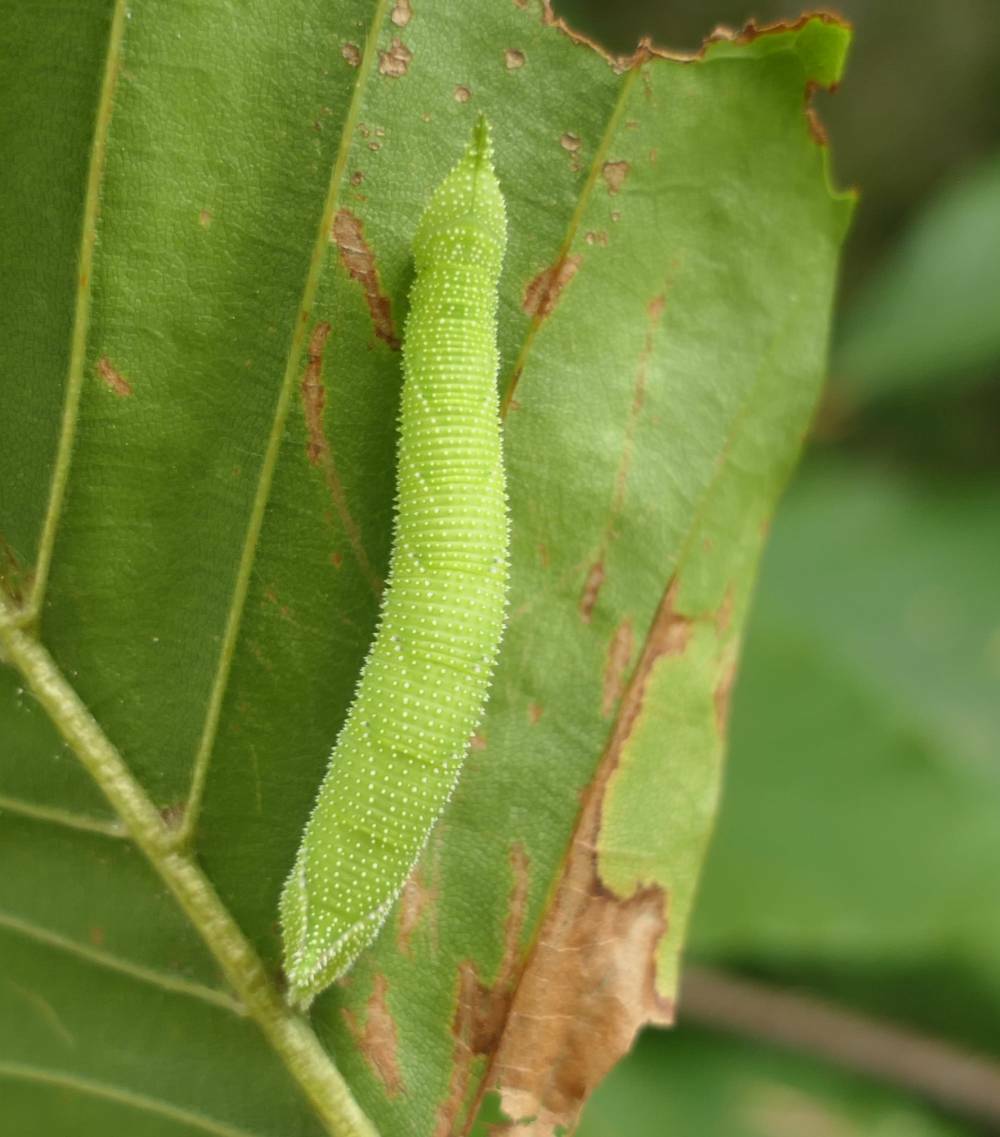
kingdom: Animalia
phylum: Arthropoda
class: Insecta
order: Lepidoptera
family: Sphingidae
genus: Amorpha
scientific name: Amorpha juglandis
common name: Walnut sphinx
